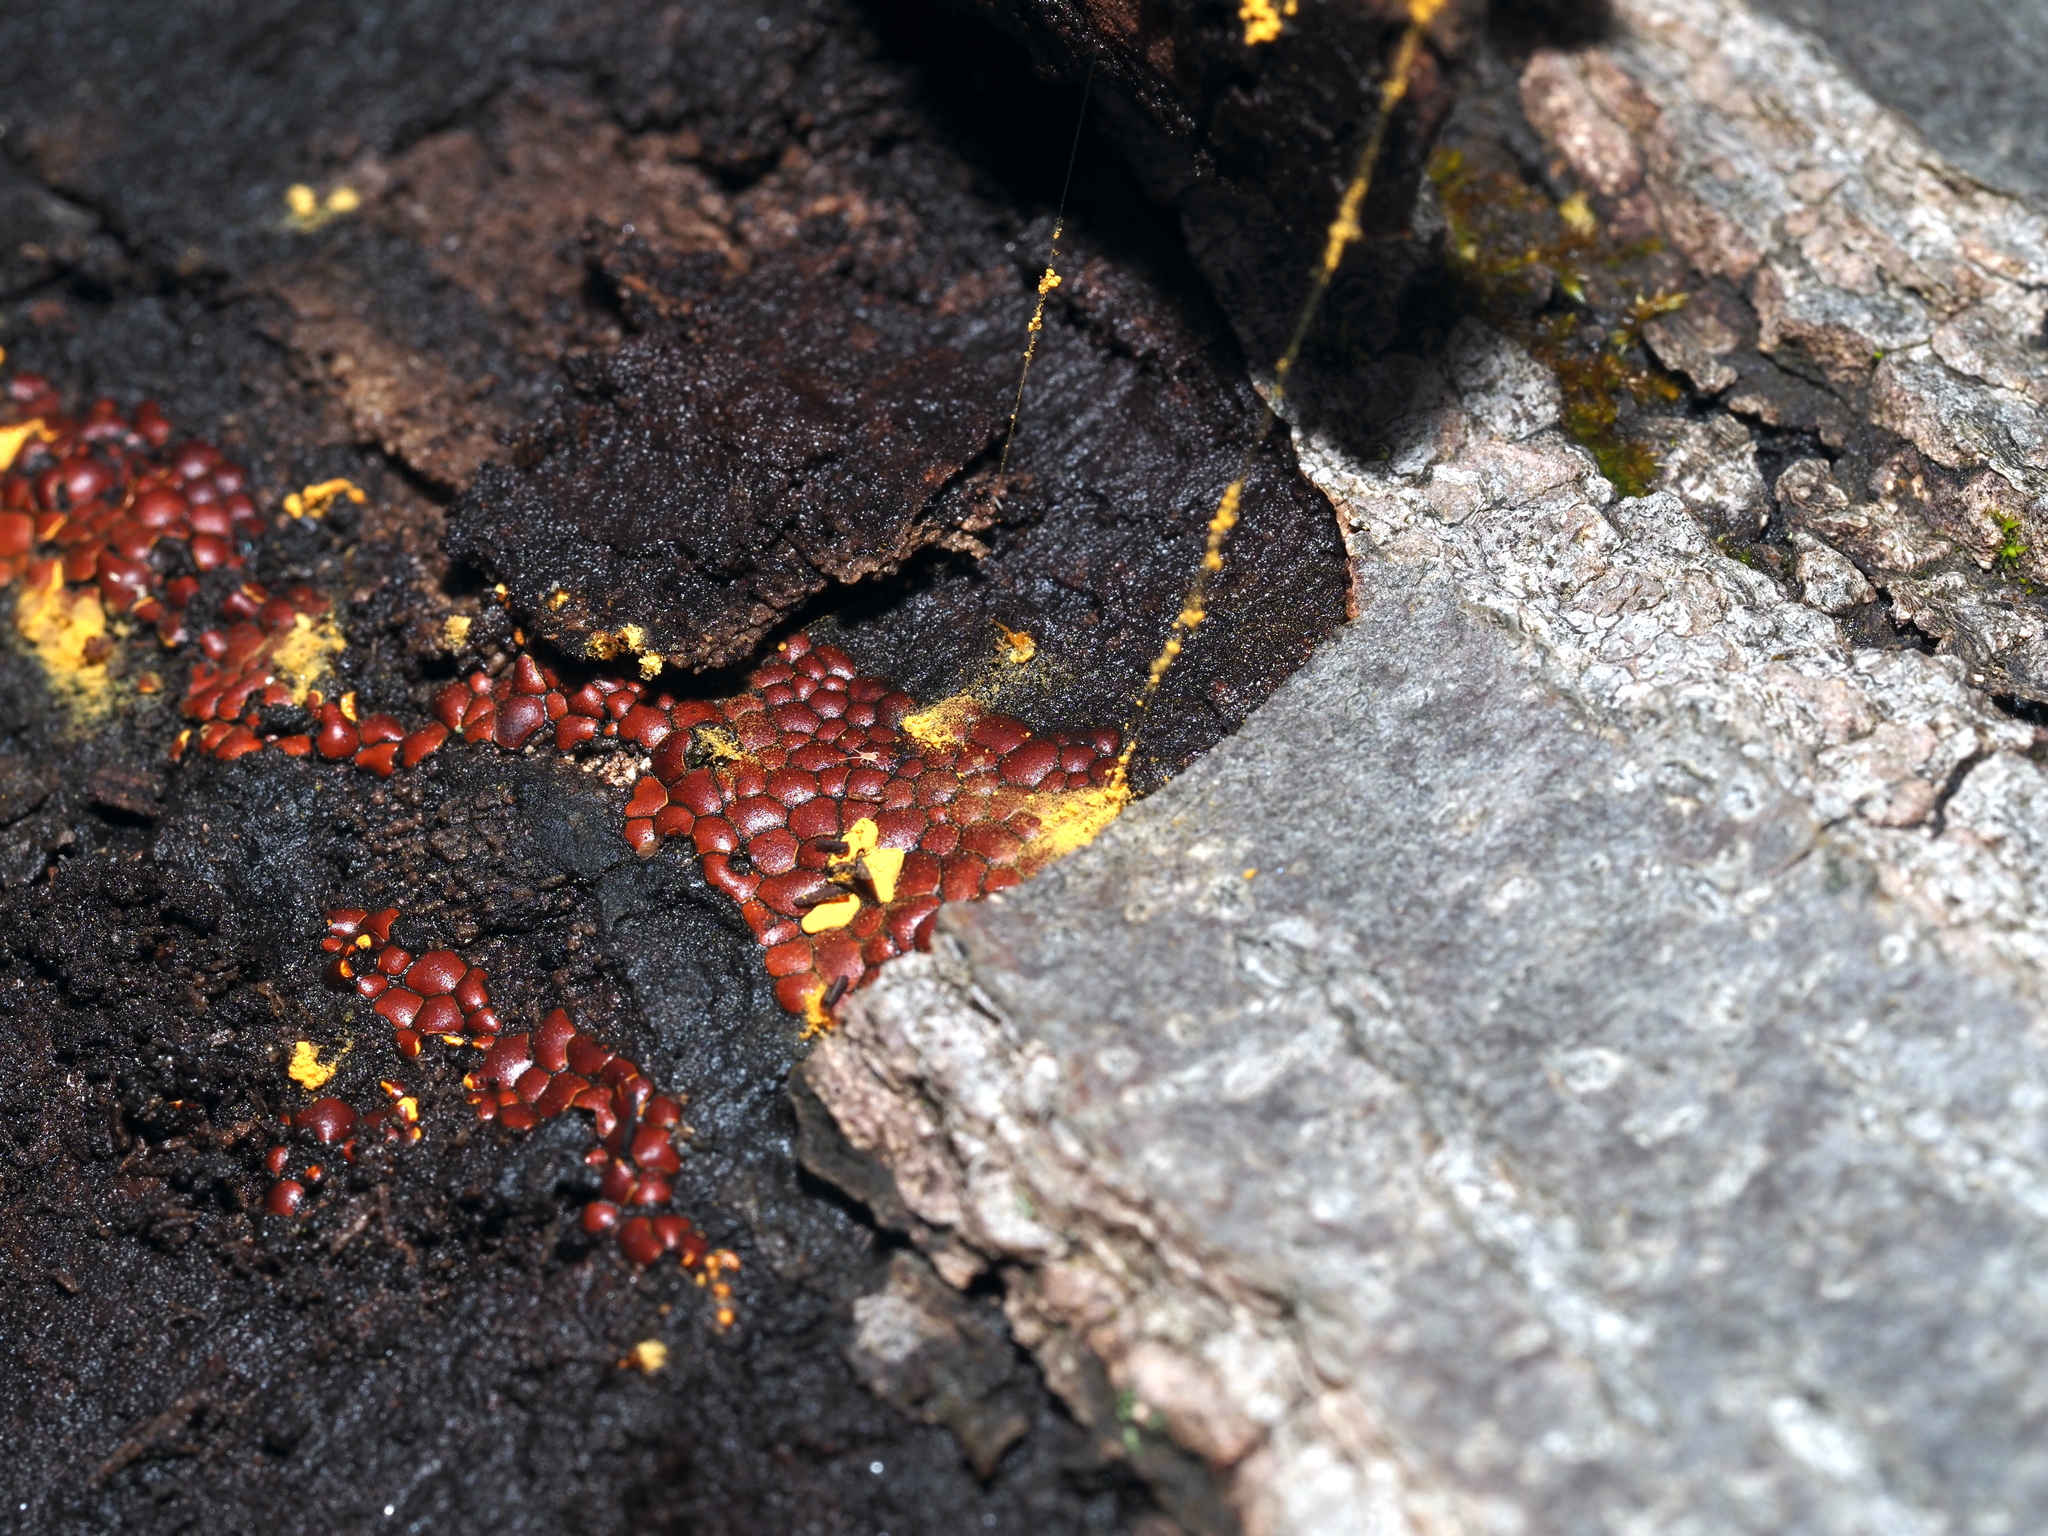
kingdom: Protozoa
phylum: Mycetozoa
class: Myxomycetes
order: Trichiales
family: Trichiaceae
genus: Perichaena
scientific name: Perichaena depressa
